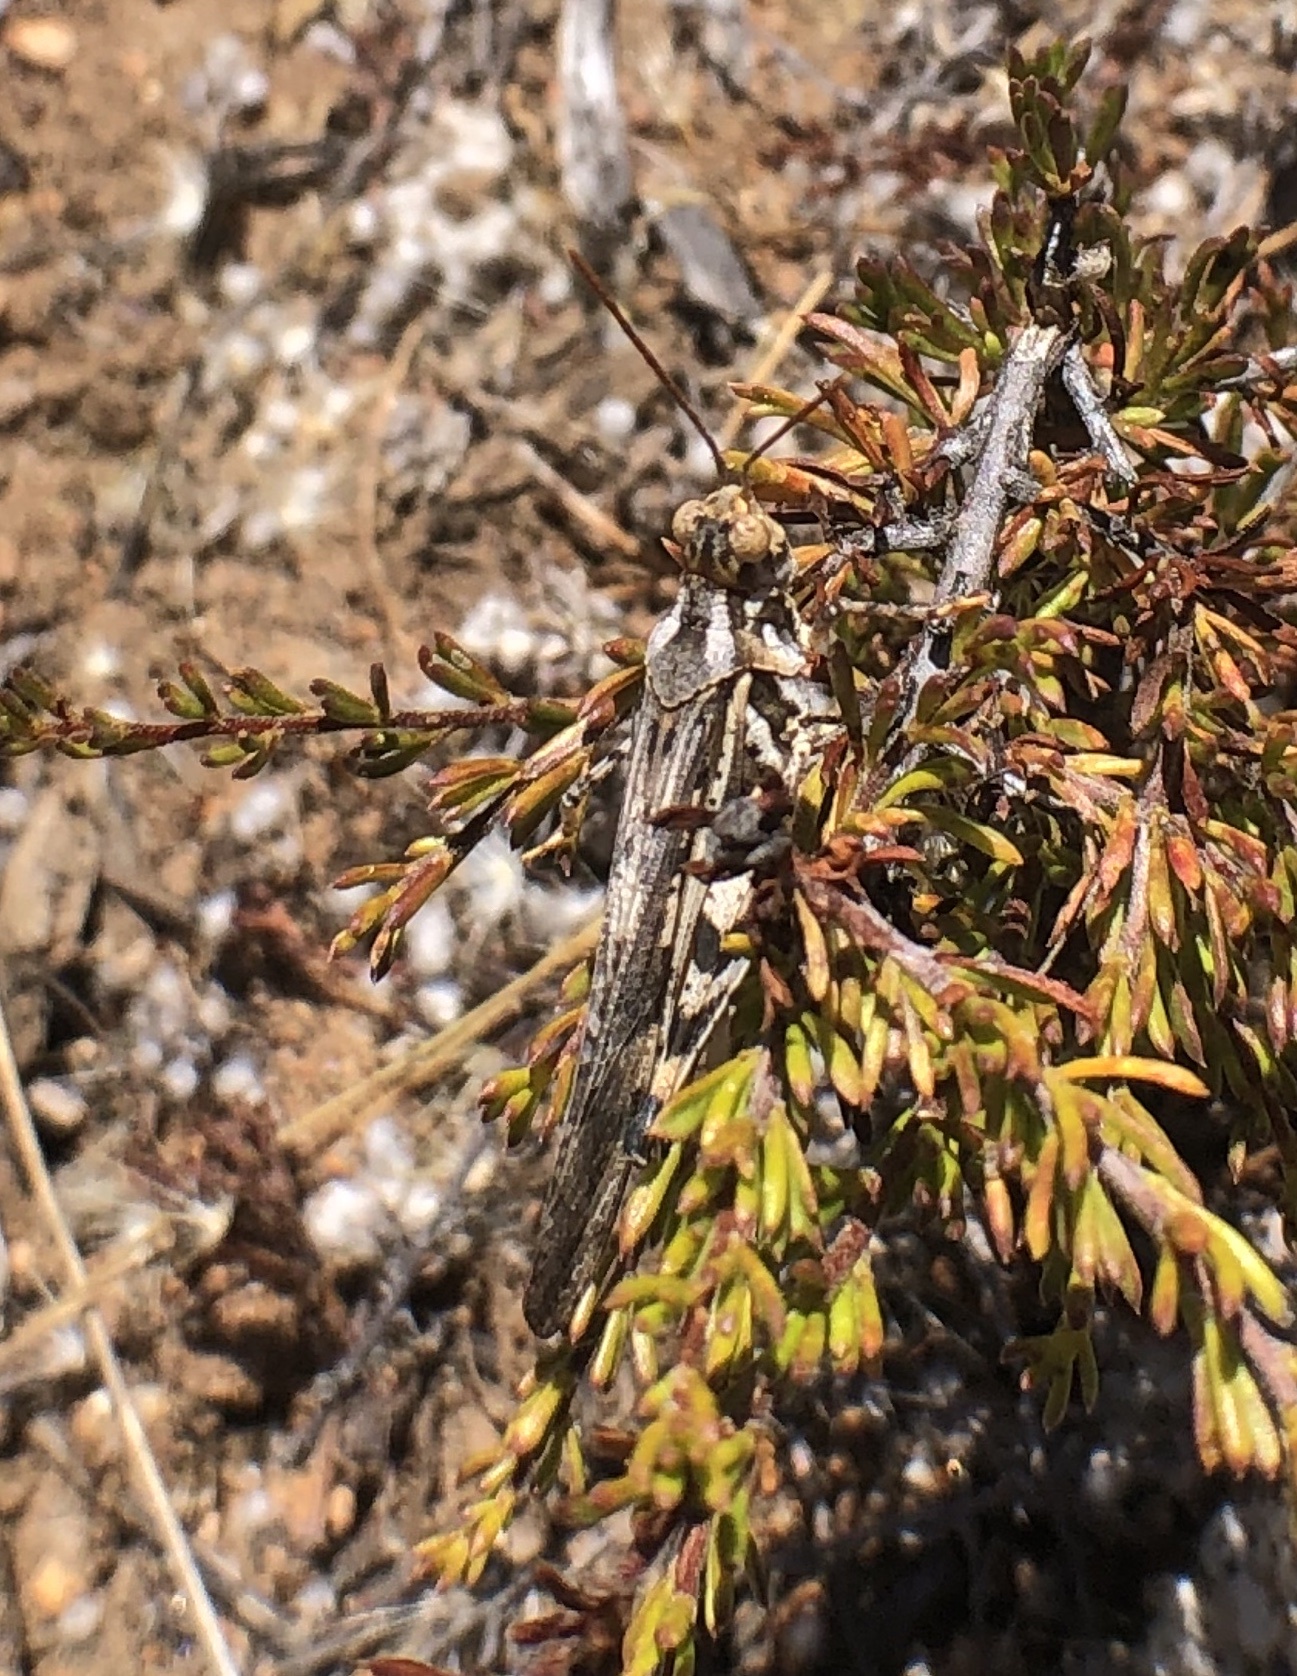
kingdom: Animalia
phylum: Arthropoda
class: Insecta
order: Orthoptera
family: Acrididae
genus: Conozoa
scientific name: Conozoa rebellis
